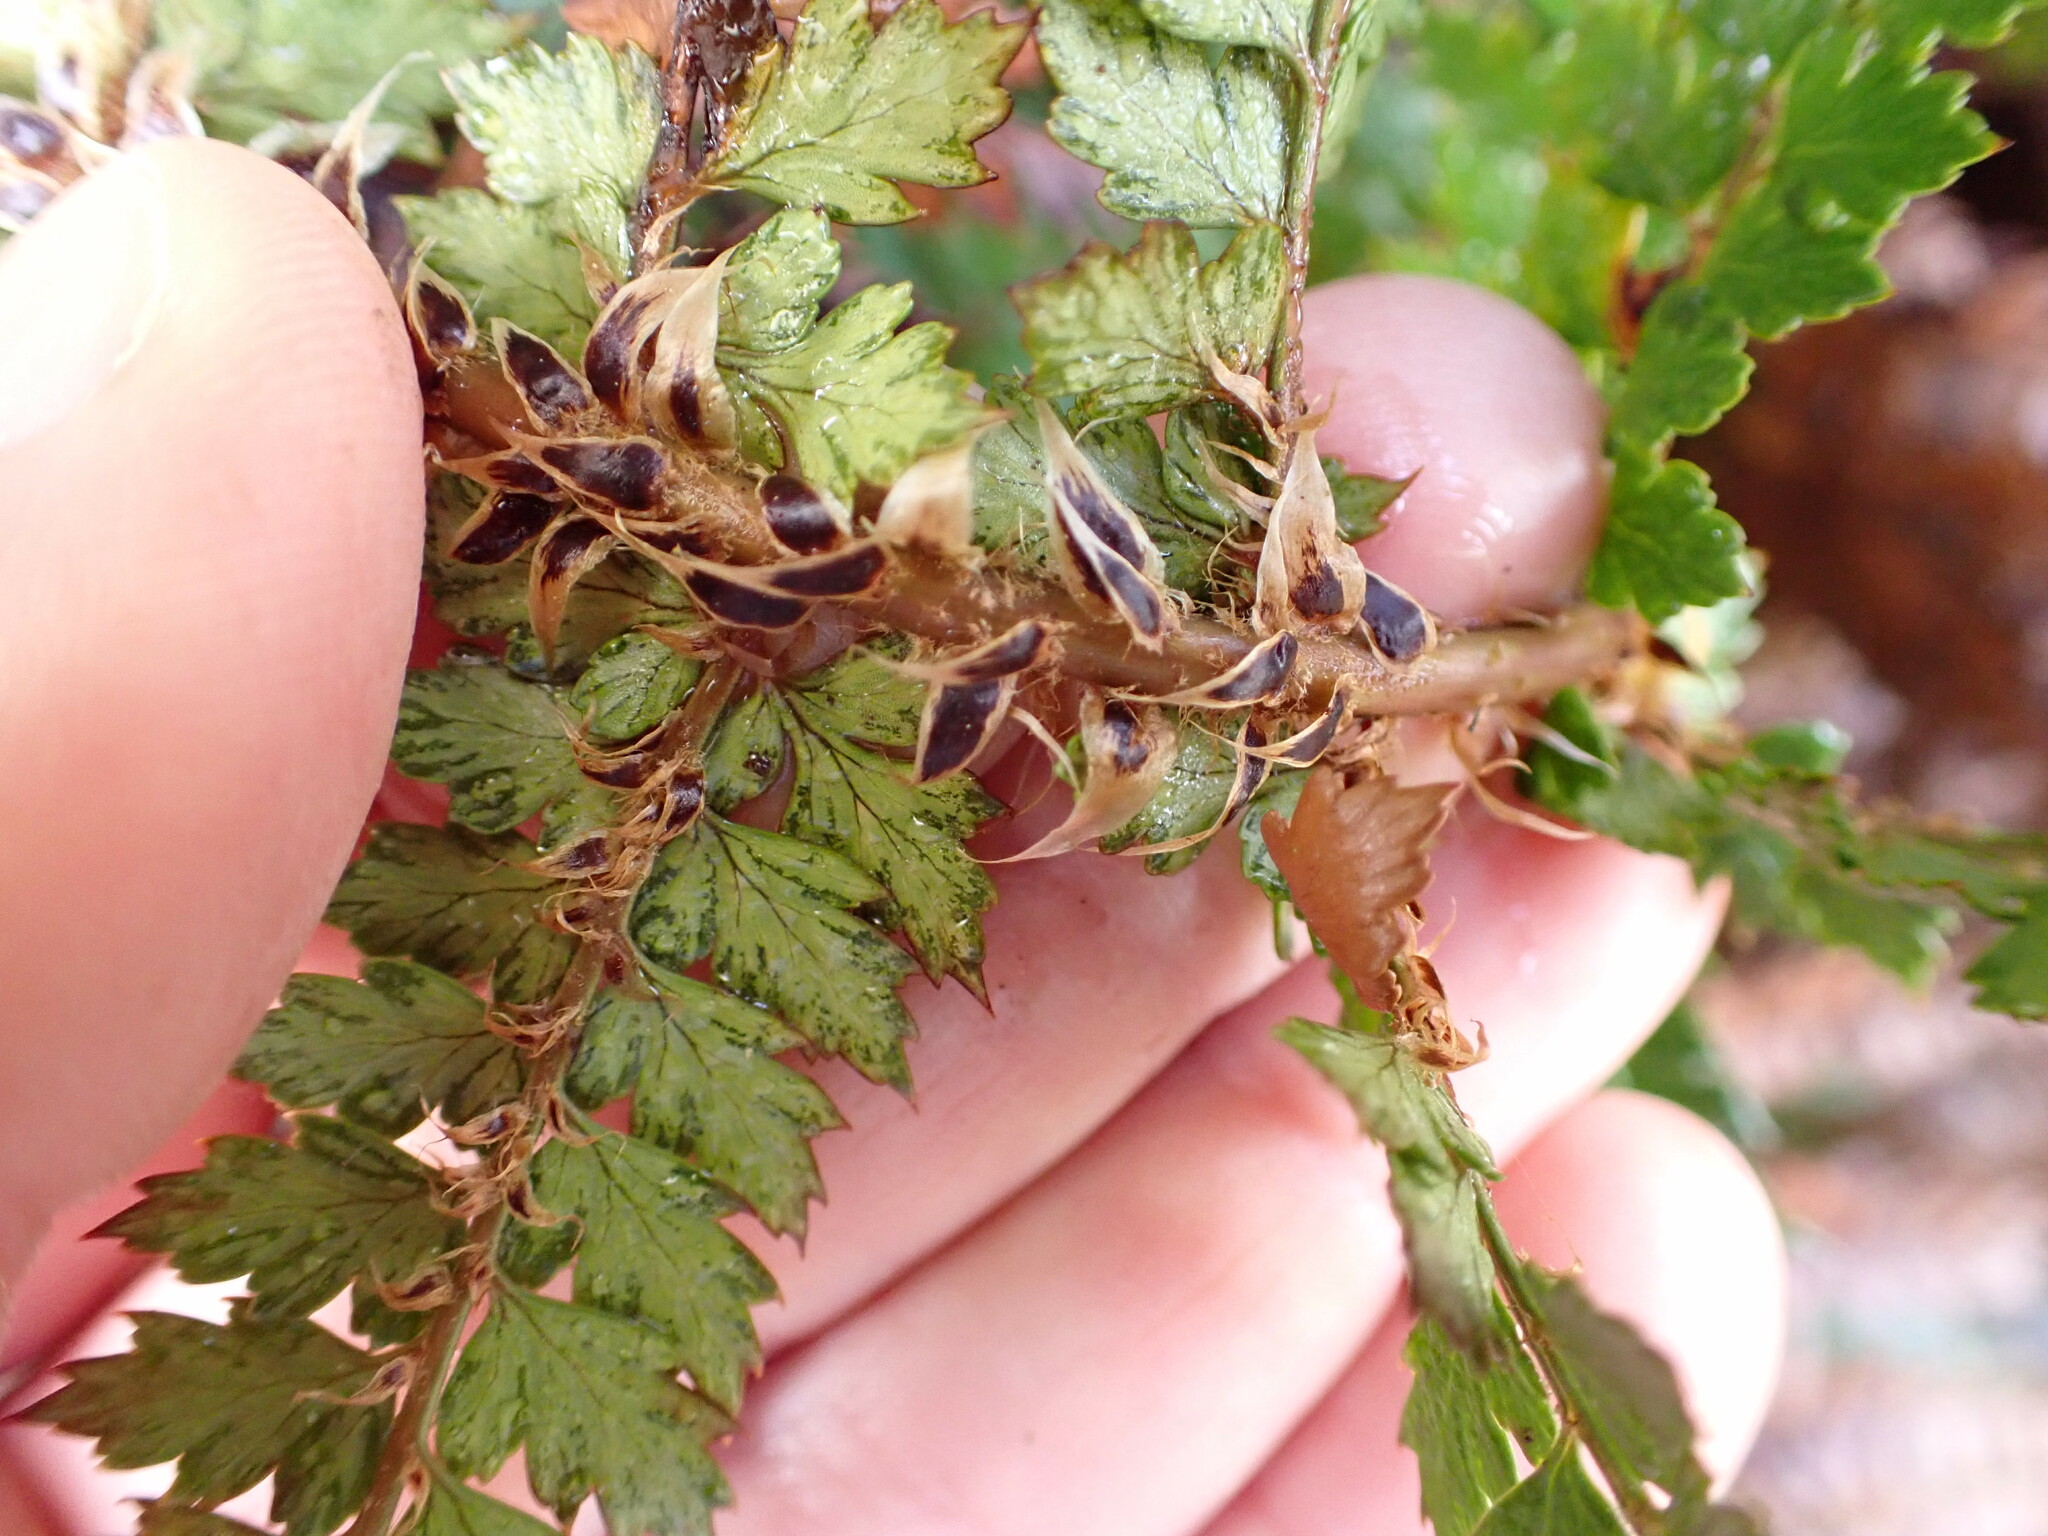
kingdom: Plantae
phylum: Tracheophyta
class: Polypodiopsida
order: Polypodiales
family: Dryopteridaceae
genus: Polystichum
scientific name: Polystichum vestitum
